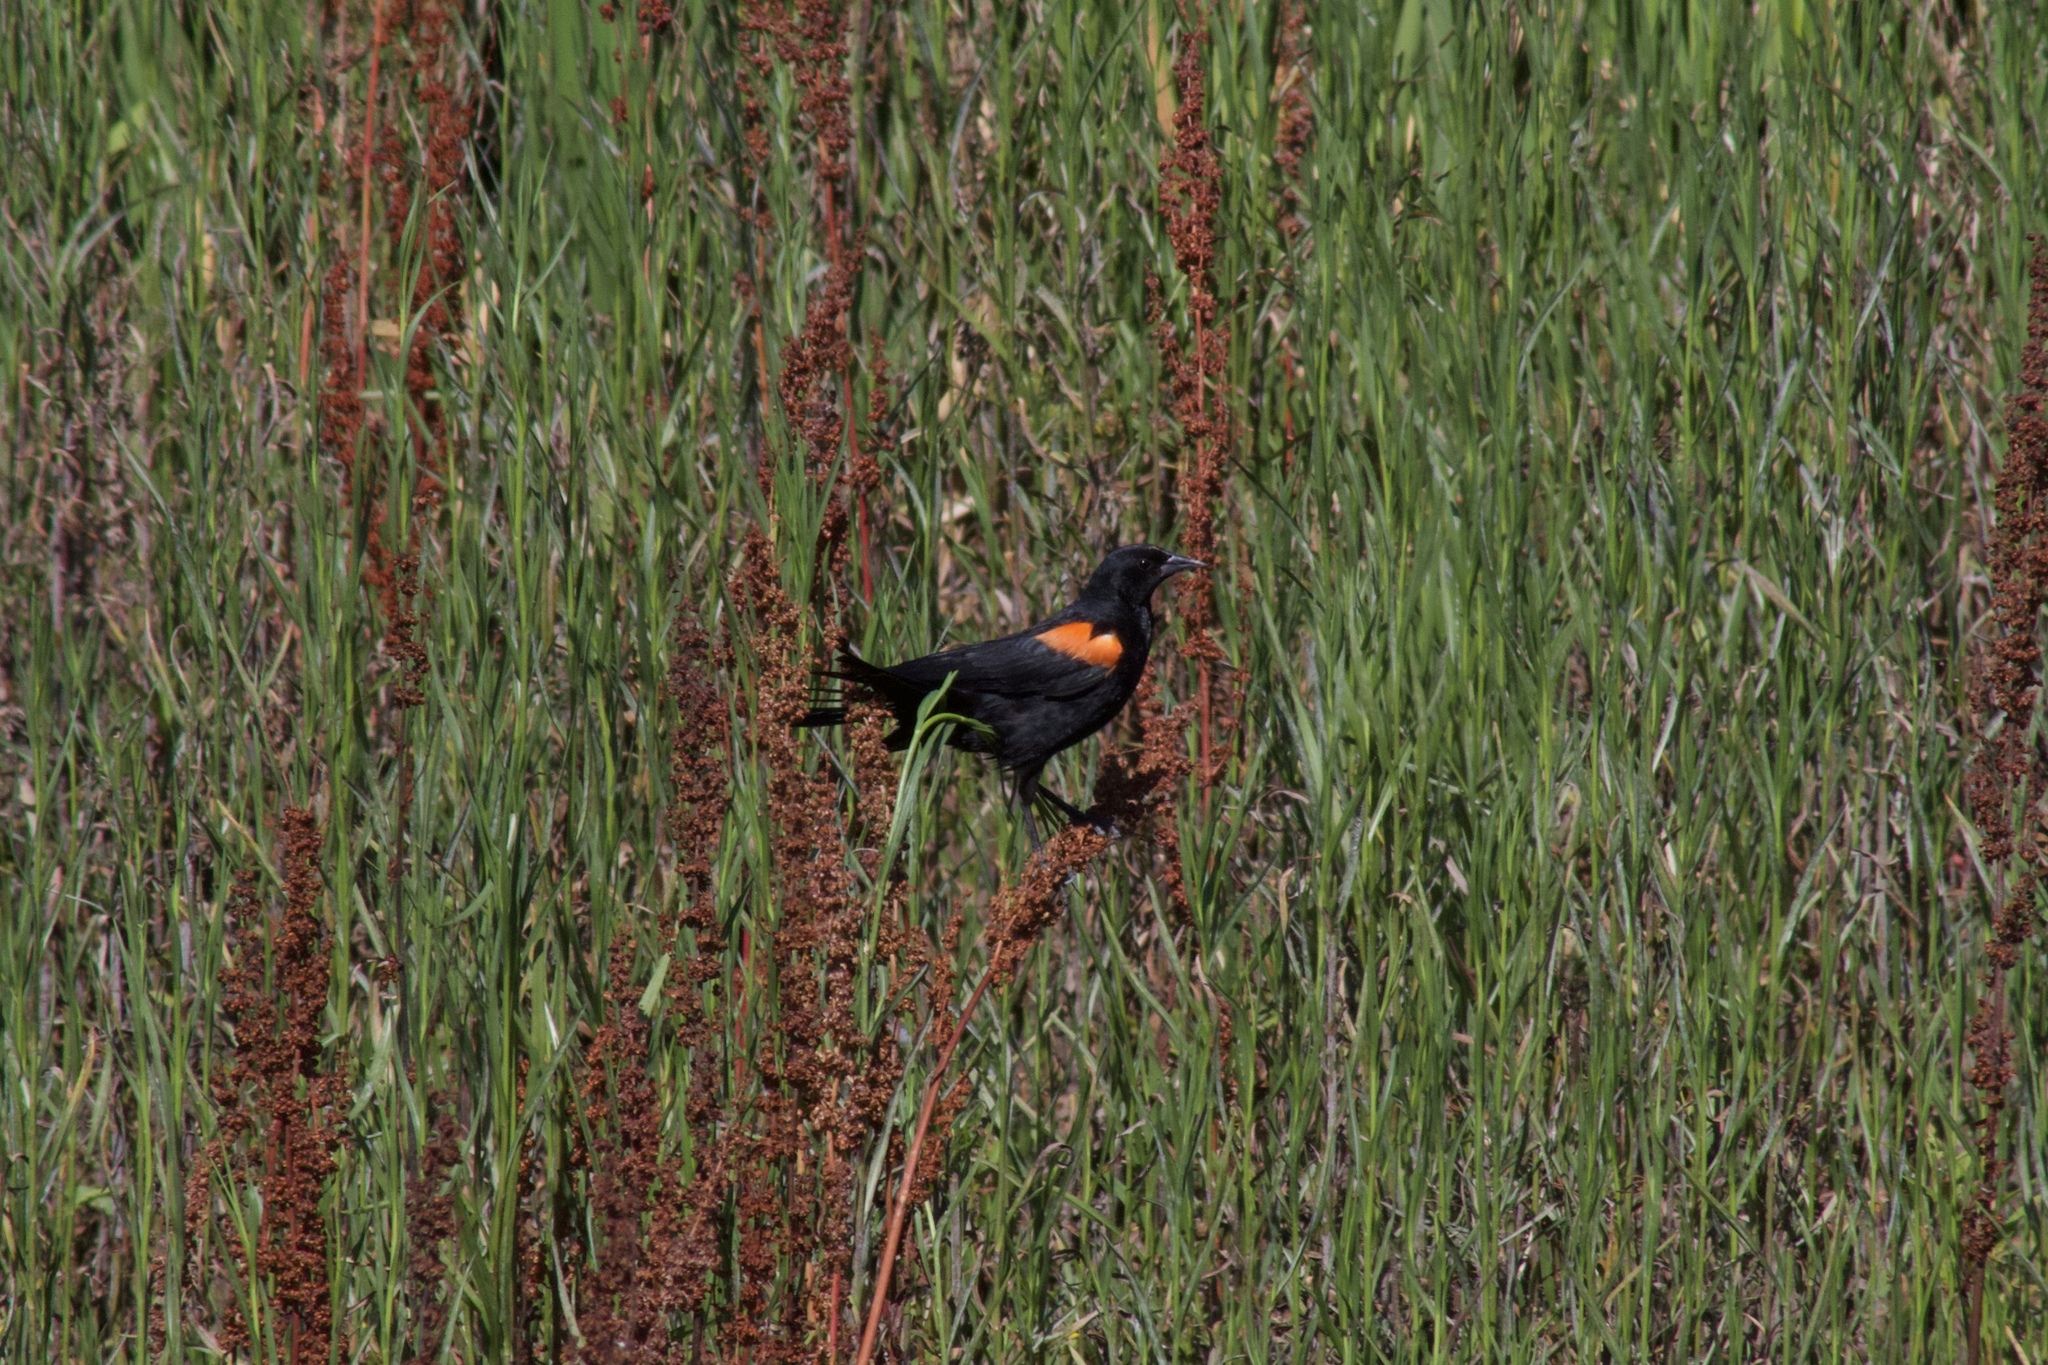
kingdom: Animalia
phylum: Chordata
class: Aves
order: Passeriformes
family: Icteridae
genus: Agelaius
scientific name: Agelaius phoeniceus
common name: Red-winged blackbird
